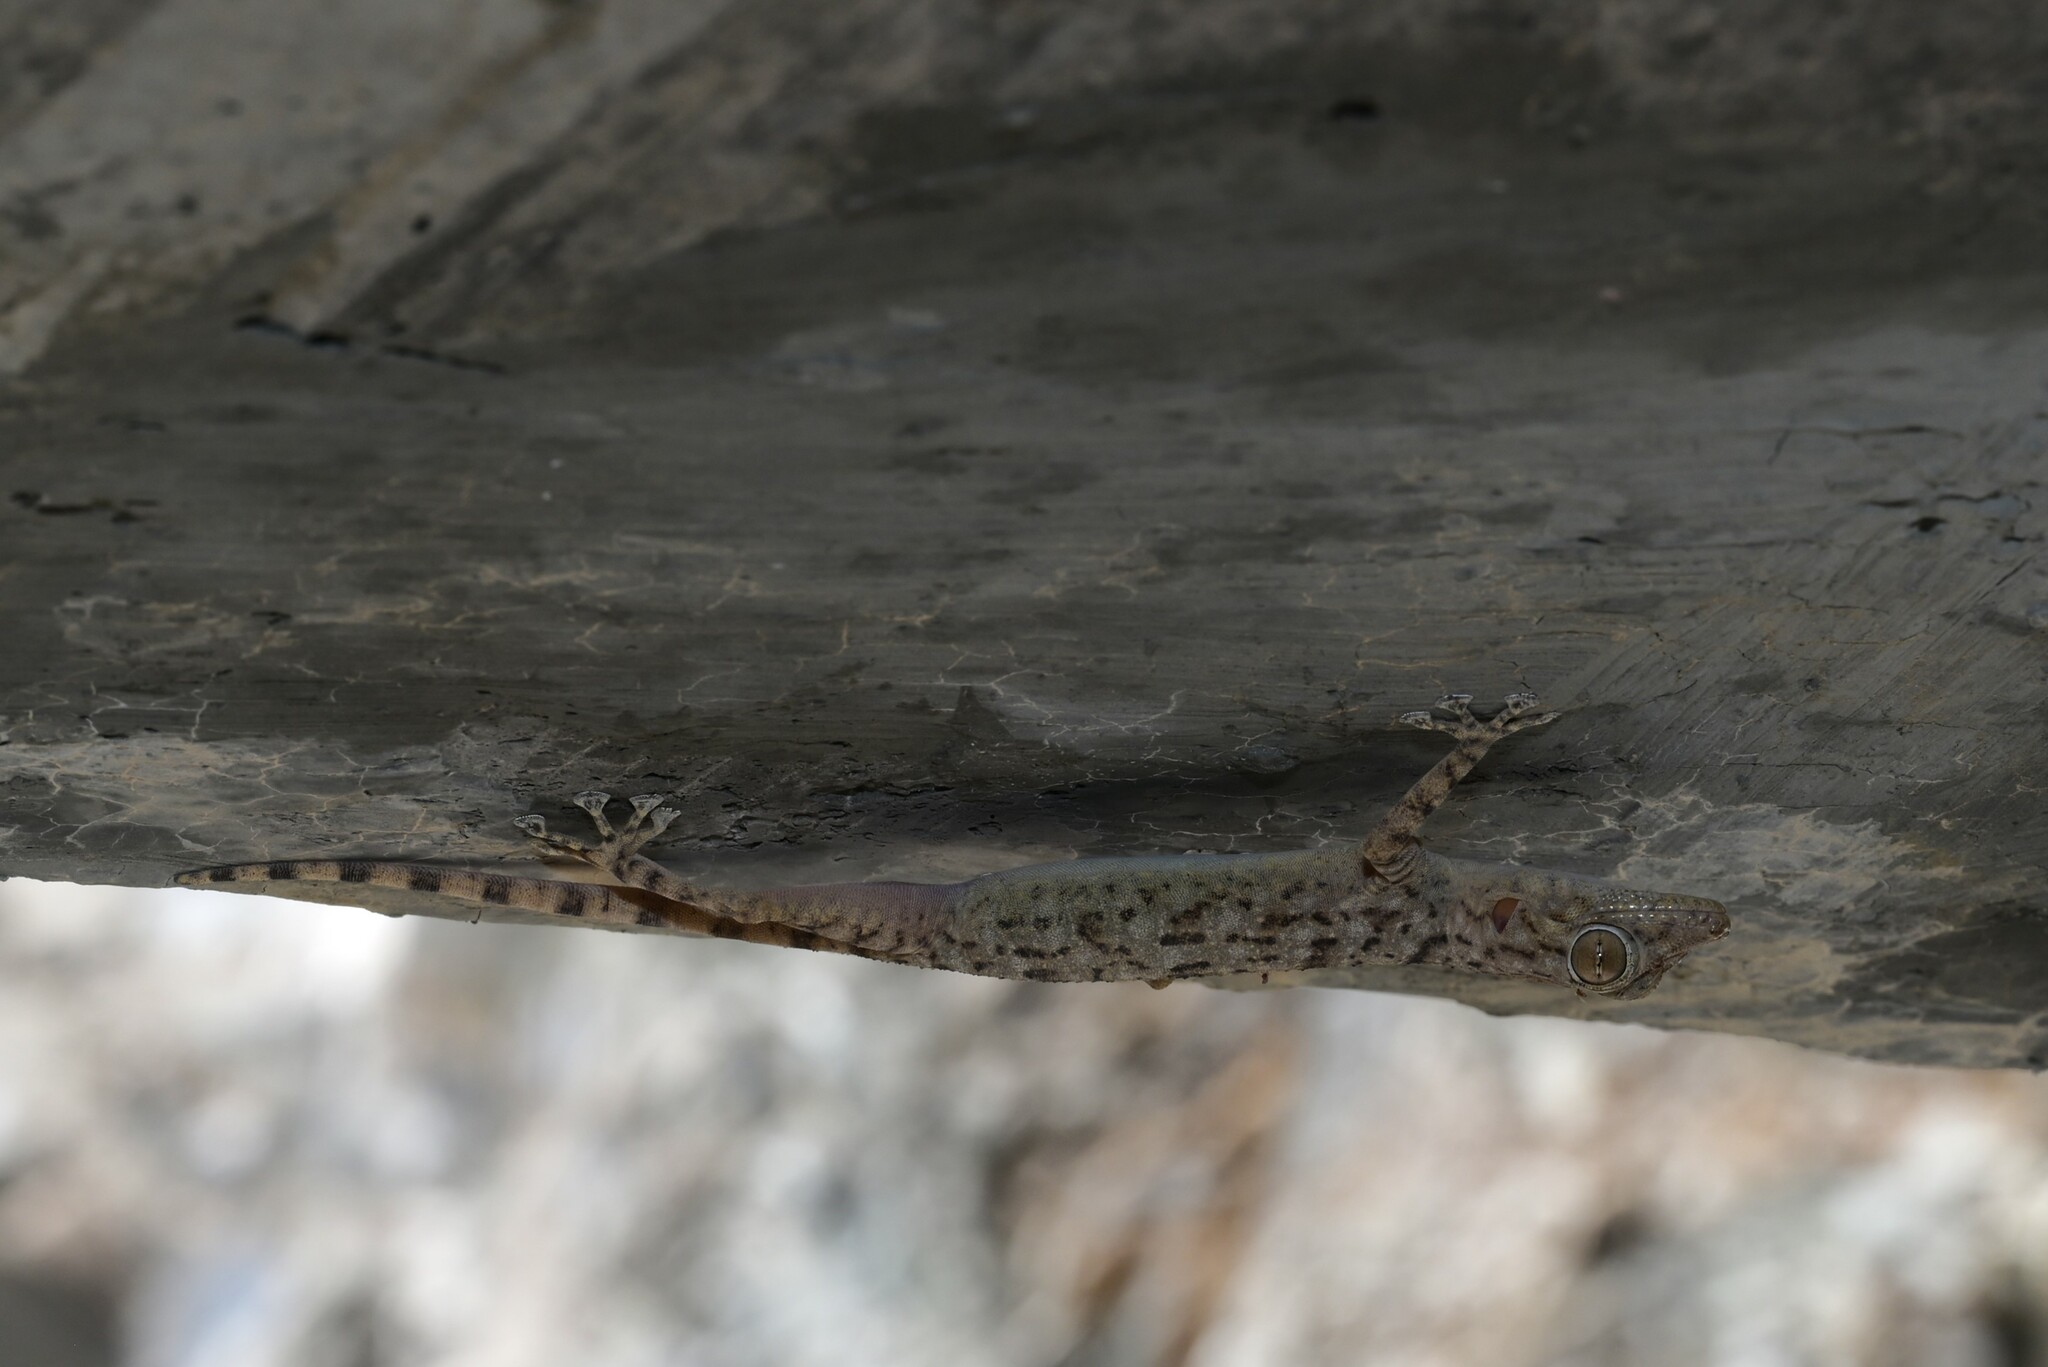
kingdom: Animalia
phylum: Chordata
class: Squamata
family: Phyllodactylidae
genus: Ptyodactylus
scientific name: Ptyodactylus orlovi
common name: Orlov's fan-footed gecko
